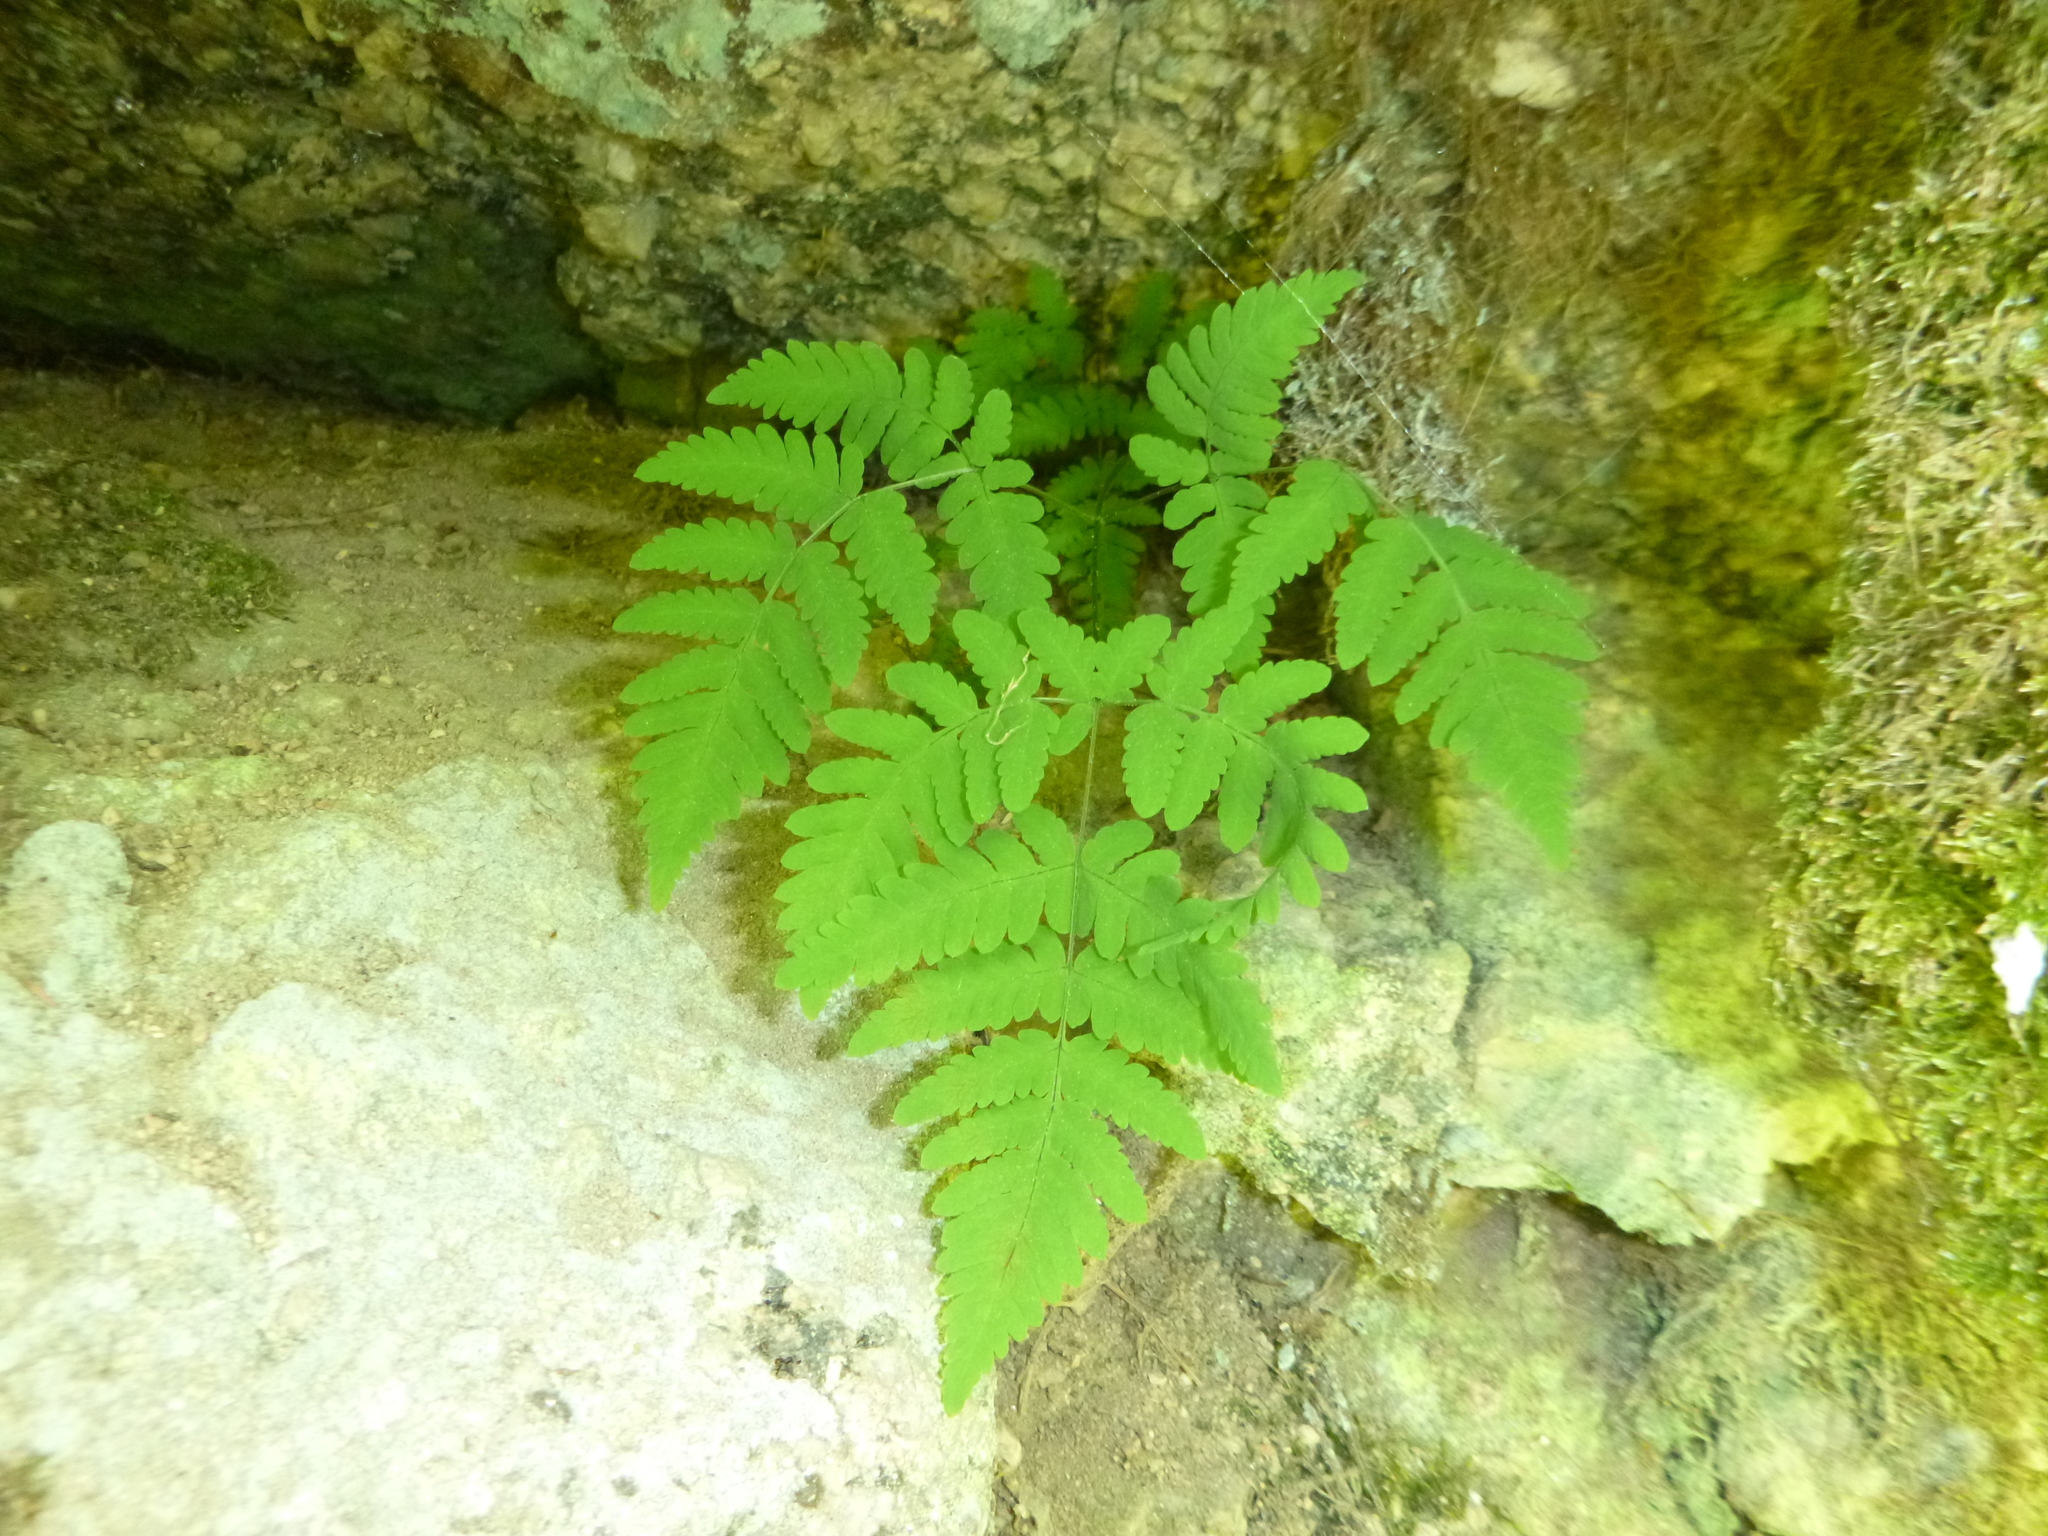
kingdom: Plantae
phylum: Tracheophyta
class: Polypodiopsida
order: Polypodiales
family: Cystopteridaceae
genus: Gymnocarpium
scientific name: Gymnocarpium dryopteris
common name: Oak fern
